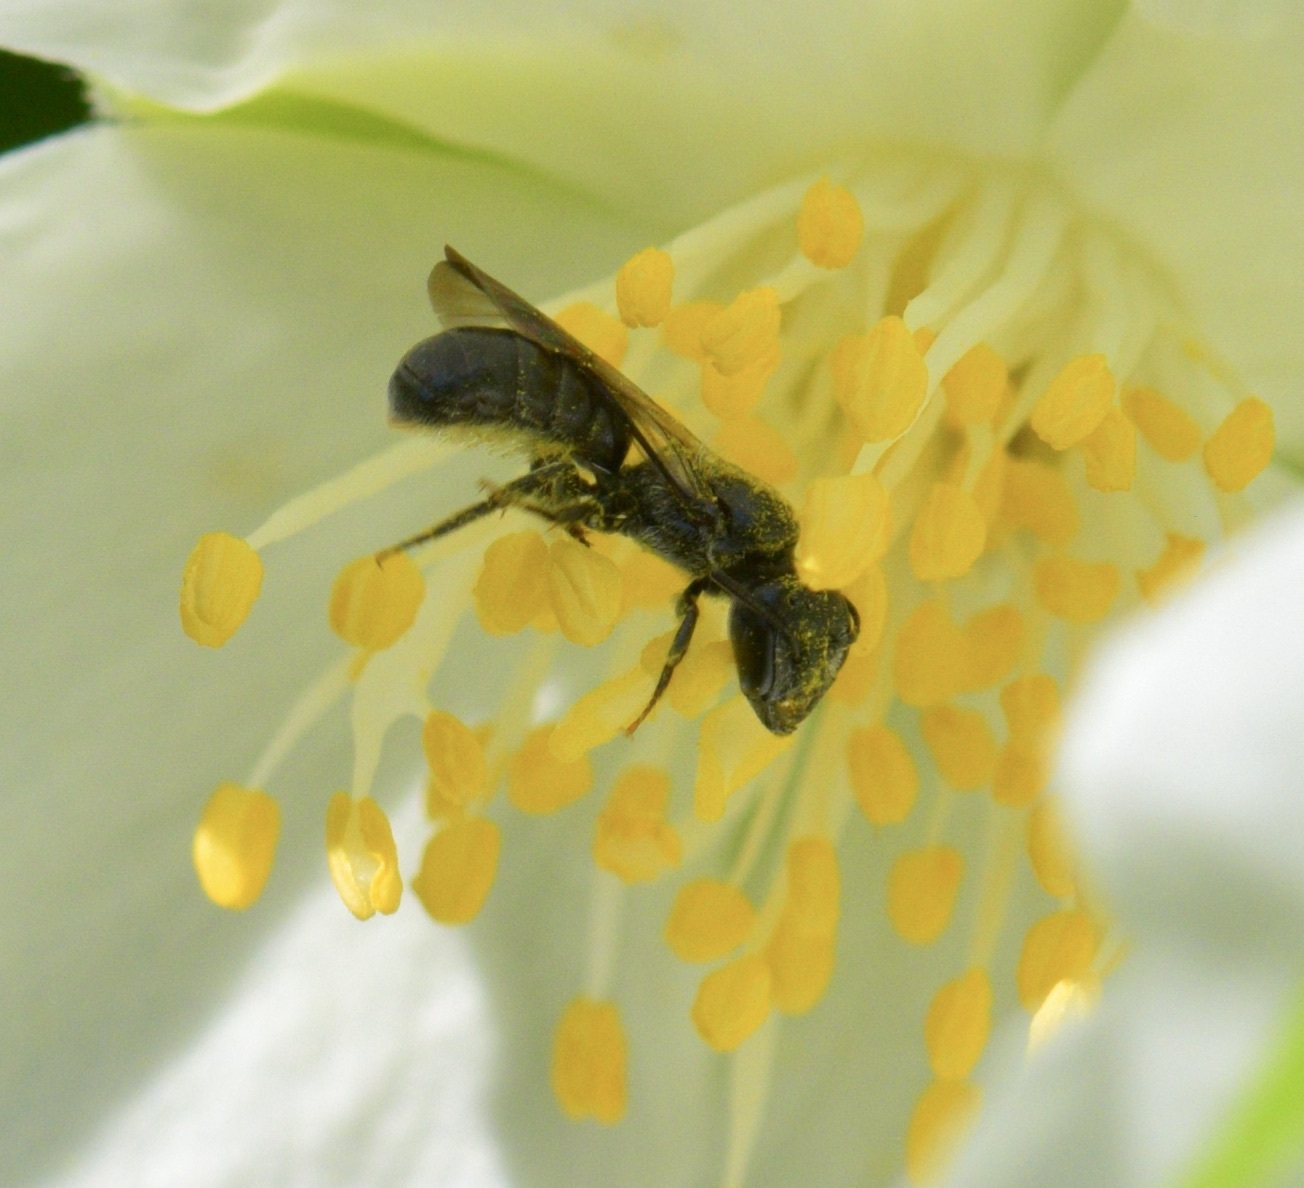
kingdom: Animalia
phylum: Arthropoda
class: Insecta
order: Hymenoptera
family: Megachilidae
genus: Chelostoma
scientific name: Chelostoma philadelphi
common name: Mock-orange scissor bee
